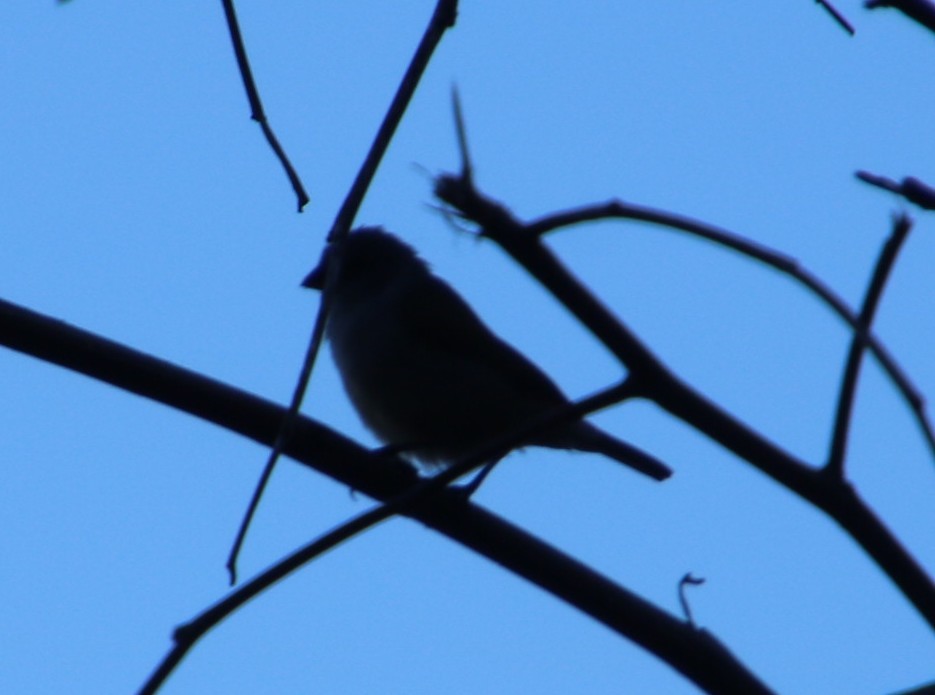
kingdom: Animalia
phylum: Chordata
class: Aves
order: Passeriformes
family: Estrildidae
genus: Coccopygia
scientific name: Coccopygia melanotis
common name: Swee waxbill
